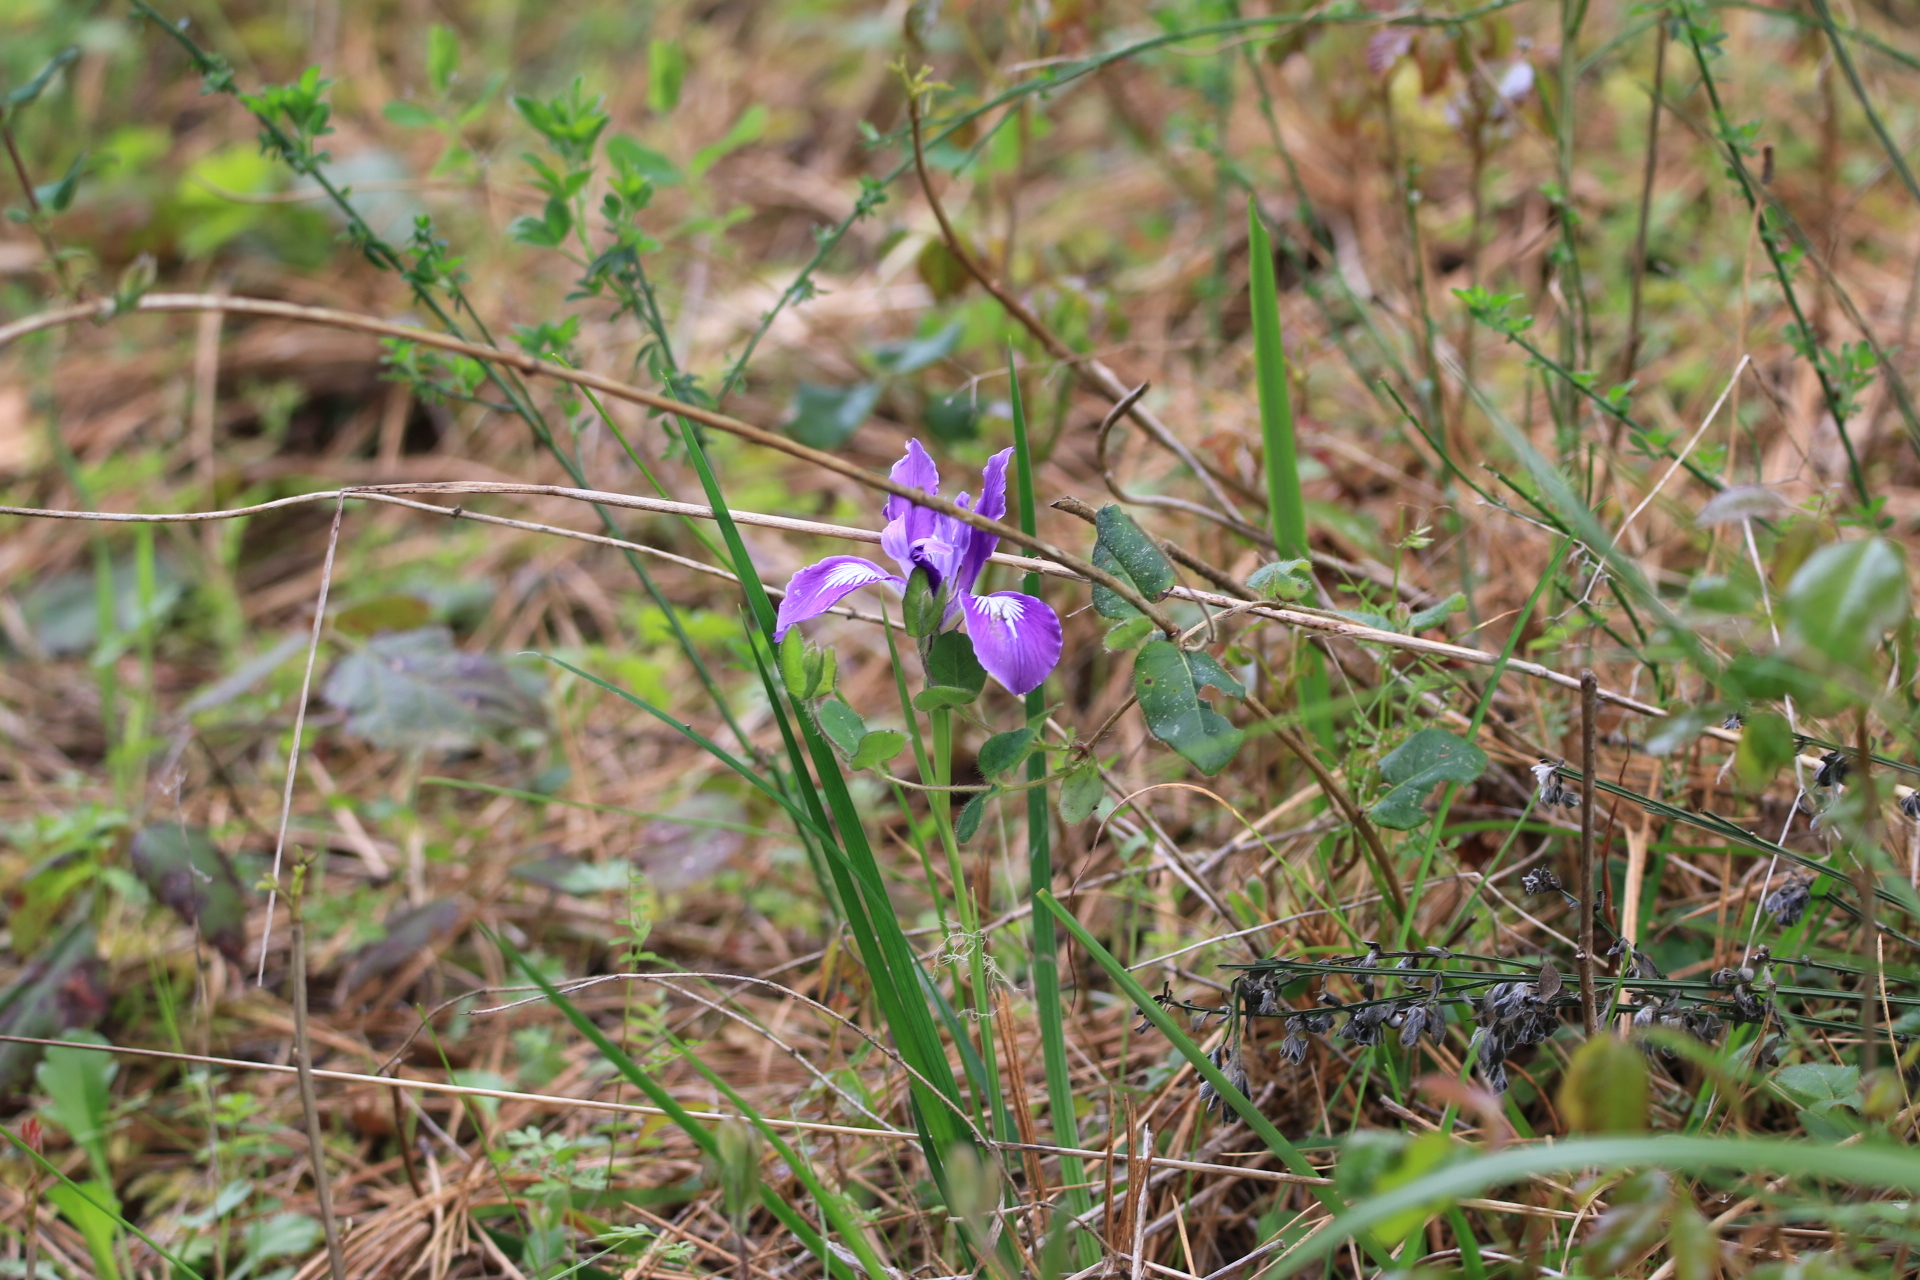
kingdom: Plantae
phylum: Tracheophyta
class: Liliopsida
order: Asparagales
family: Iridaceae
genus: Iris
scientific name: Iris tenax
